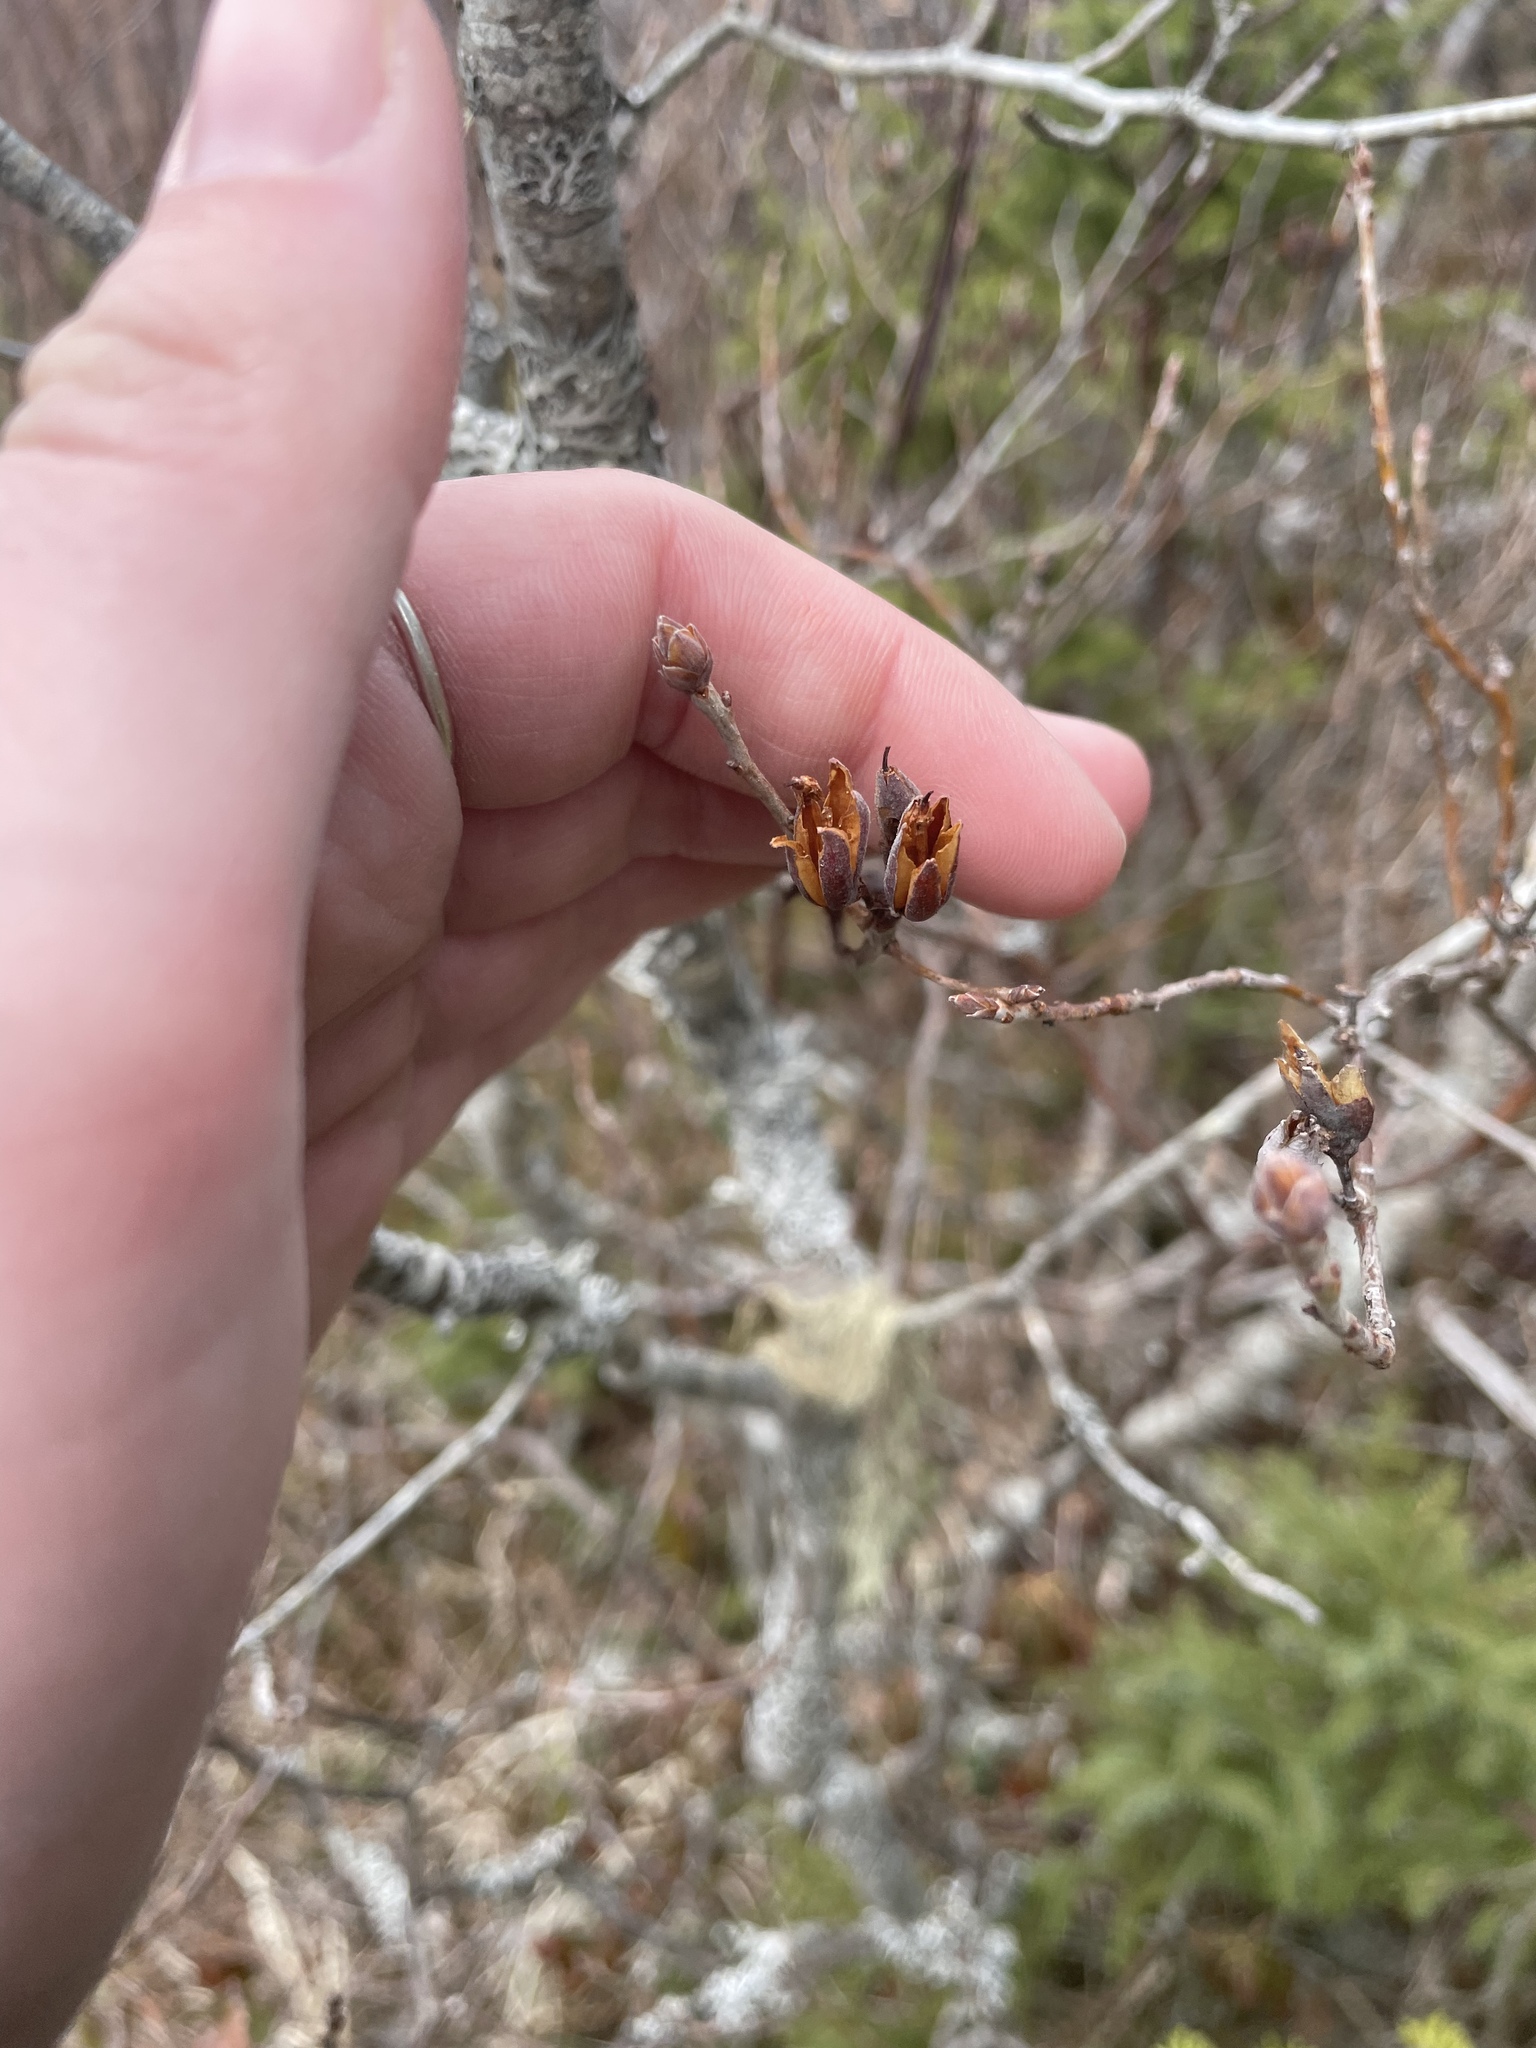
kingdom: Plantae
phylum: Tracheophyta
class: Magnoliopsida
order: Ericales
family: Ericaceae
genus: Rhododendron
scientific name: Rhododendron canadense
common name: Rhodora
